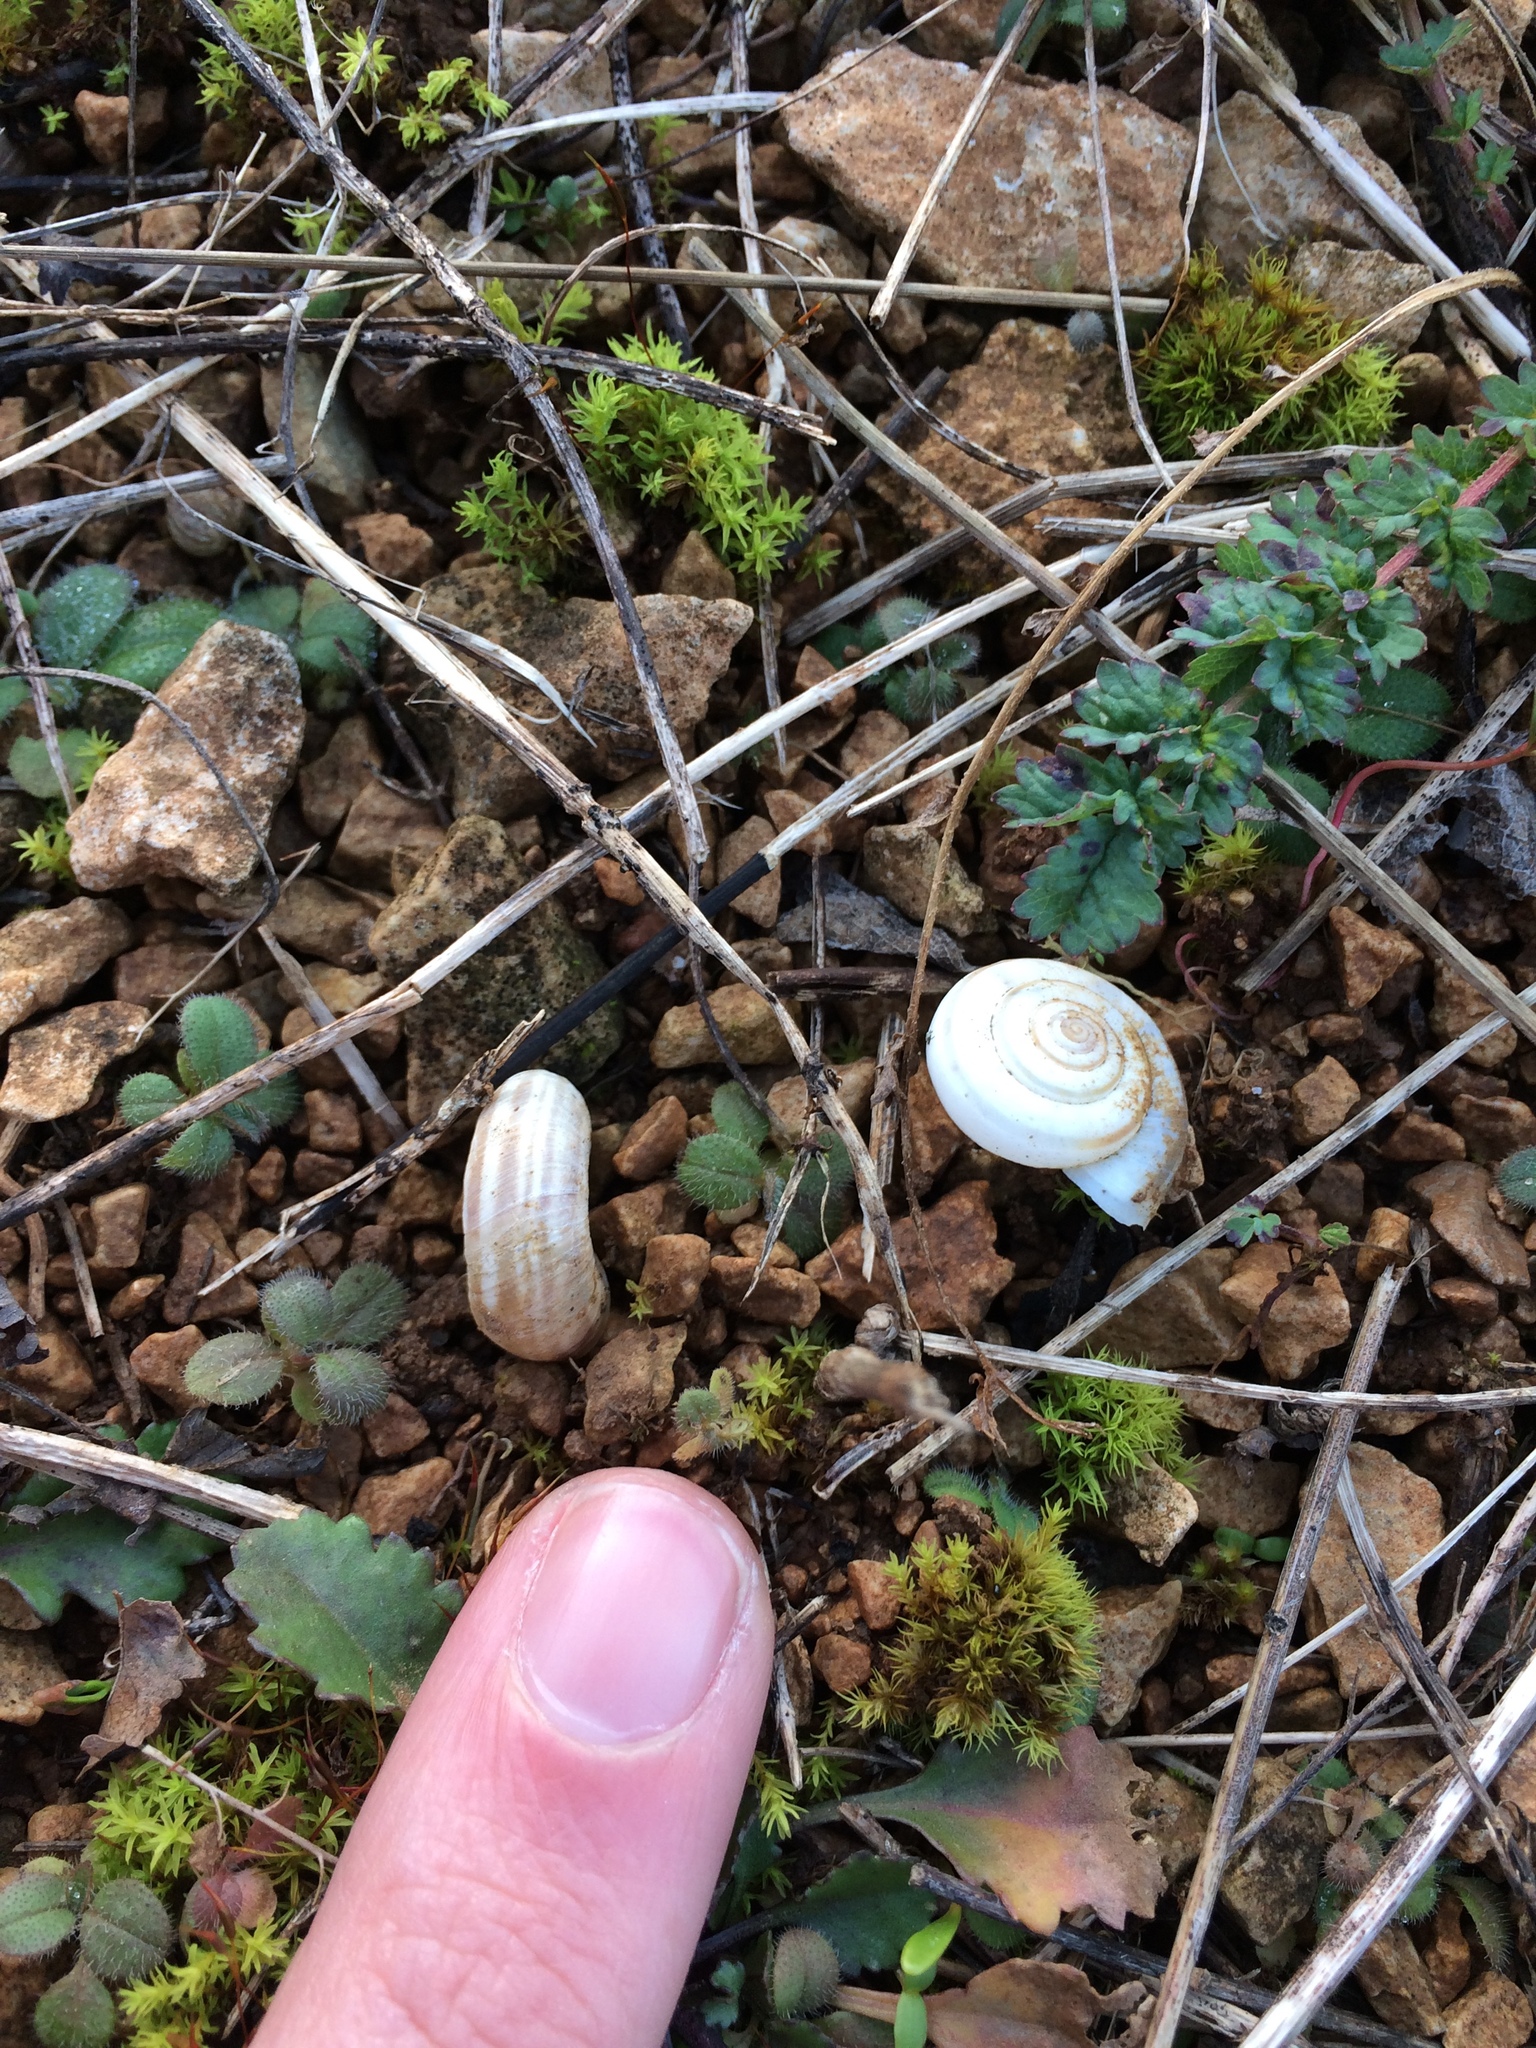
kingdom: Animalia
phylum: Mollusca
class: Gastropoda
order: Stylommatophora
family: Geomitridae
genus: Helicella
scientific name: Helicella itala
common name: Heath snail
